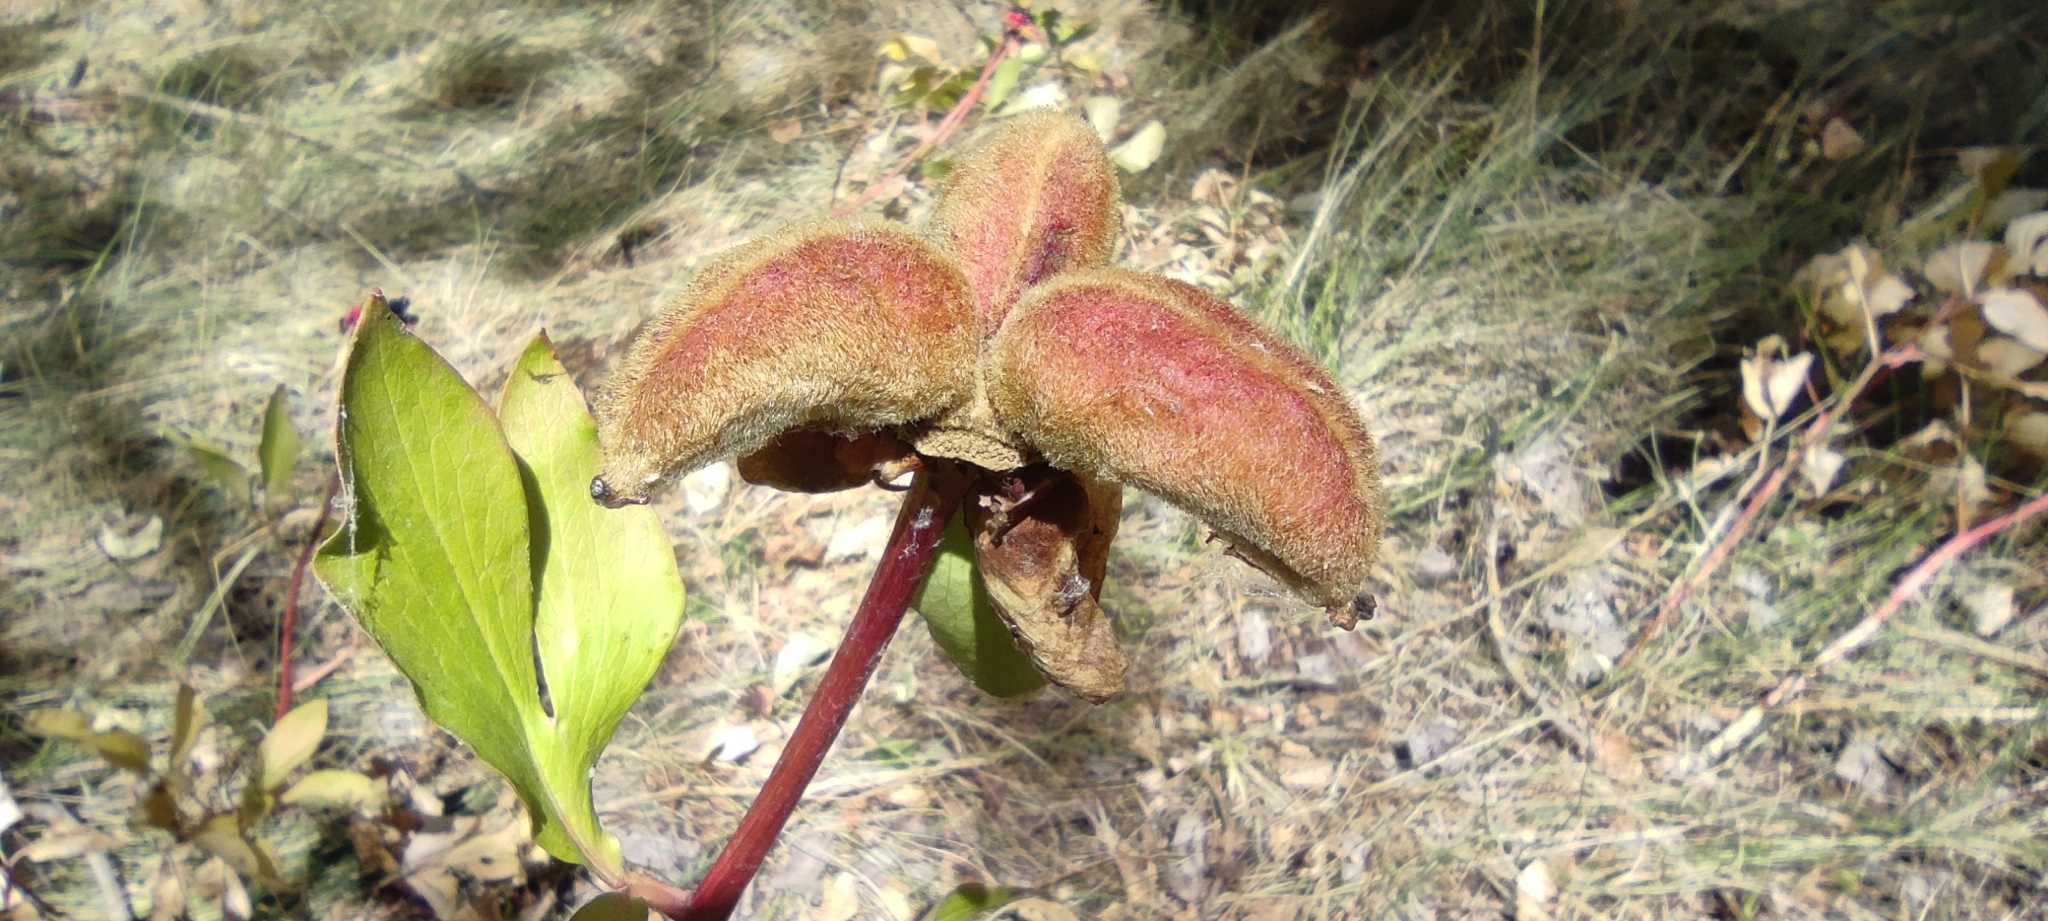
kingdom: Plantae
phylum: Tracheophyta
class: Magnoliopsida
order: Saxifragales
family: Paeoniaceae
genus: Paeonia
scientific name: Paeonia broteroi
